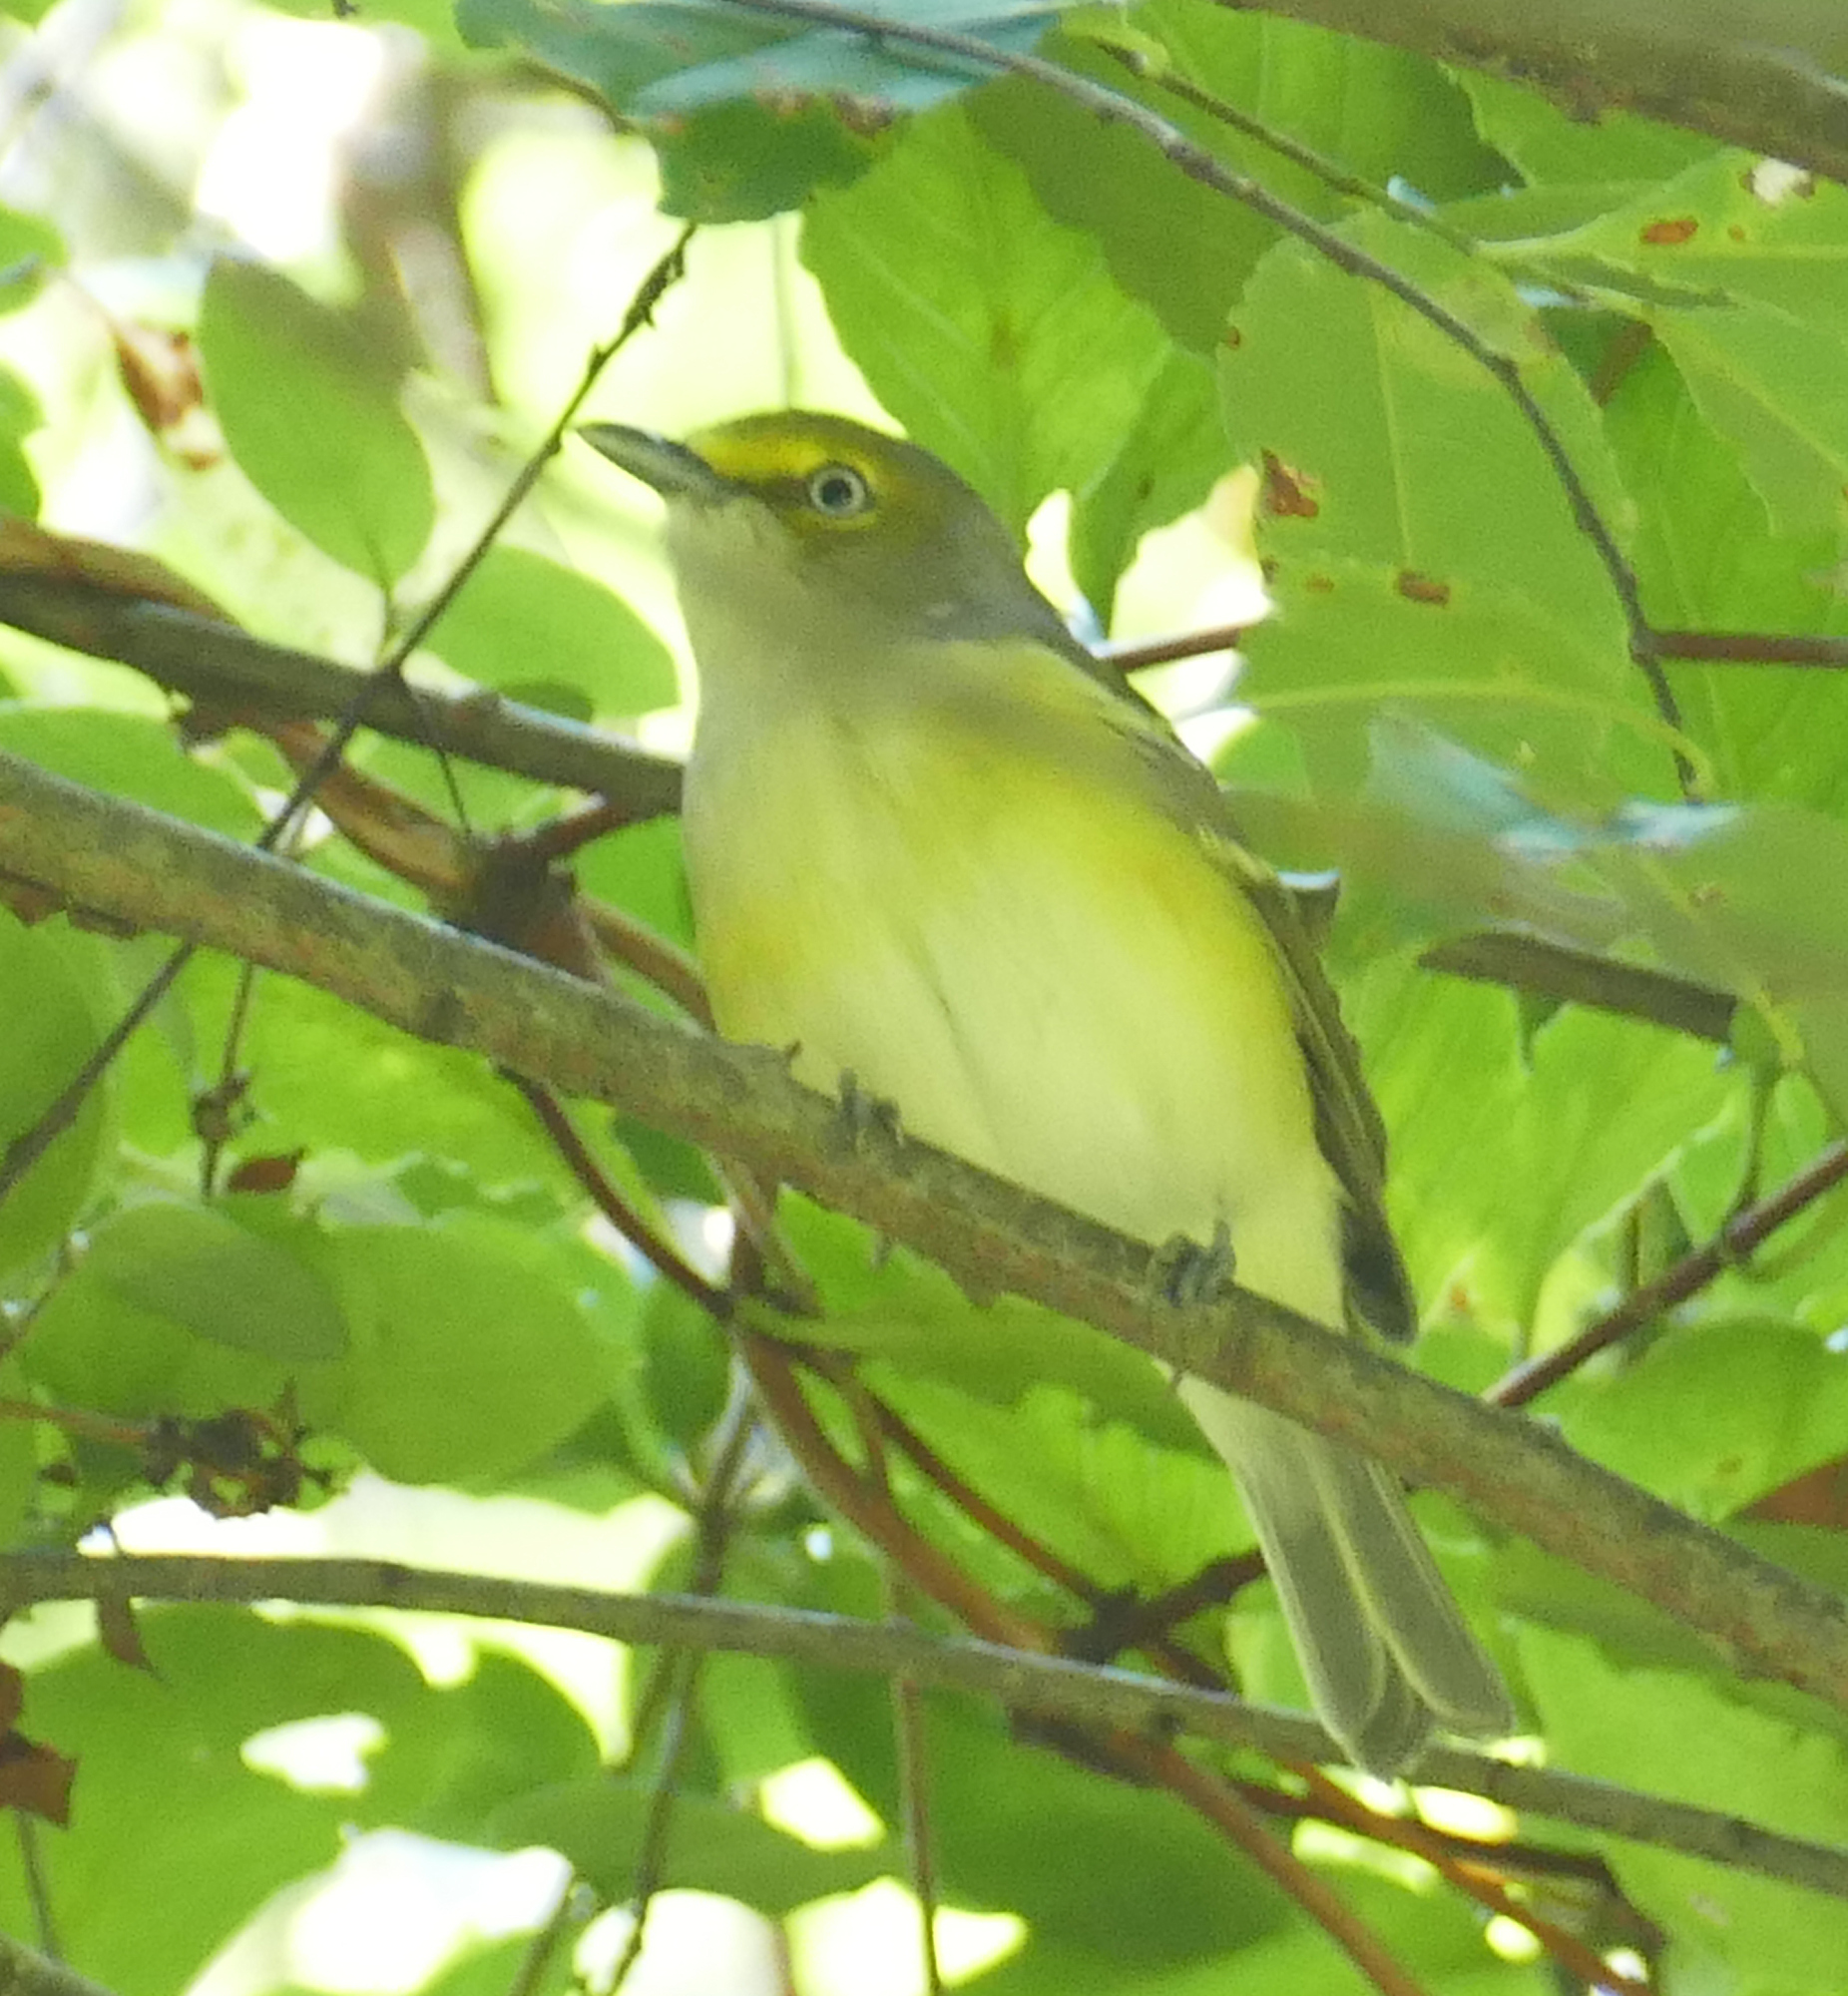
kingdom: Animalia
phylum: Chordata
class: Aves
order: Passeriformes
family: Vireonidae
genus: Vireo
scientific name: Vireo griseus
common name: White-eyed vireo
